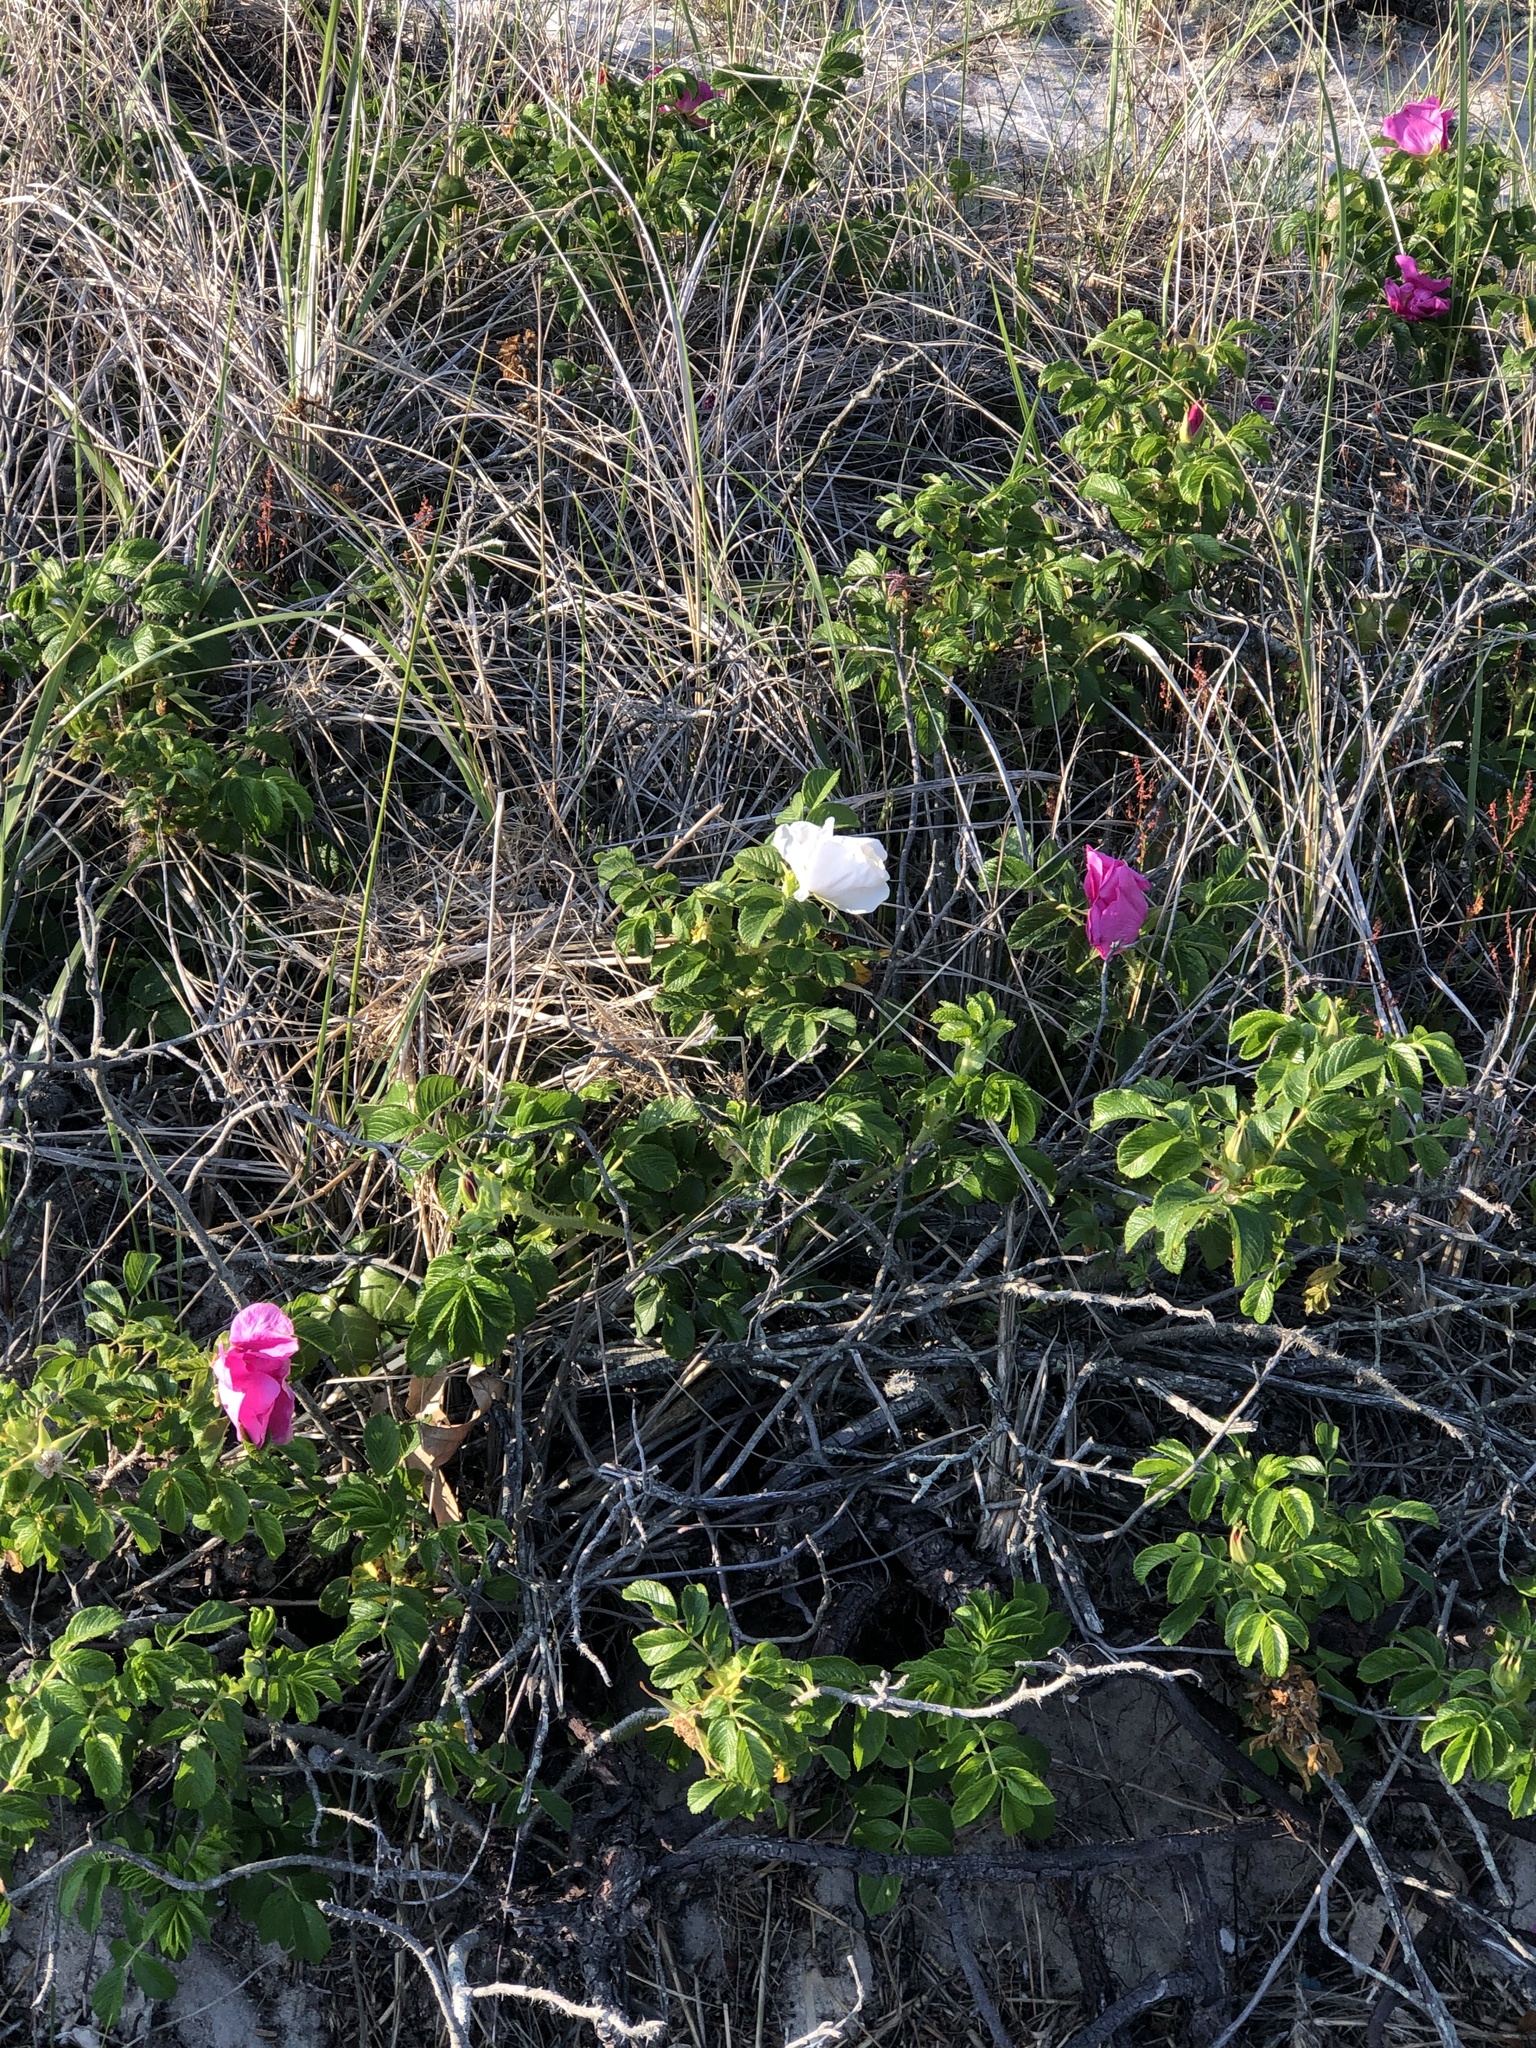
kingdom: Plantae
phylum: Tracheophyta
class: Magnoliopsida
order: Rosales
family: Rosaceae
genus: Rosa
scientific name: Rosa rugosa
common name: Japanese rose
